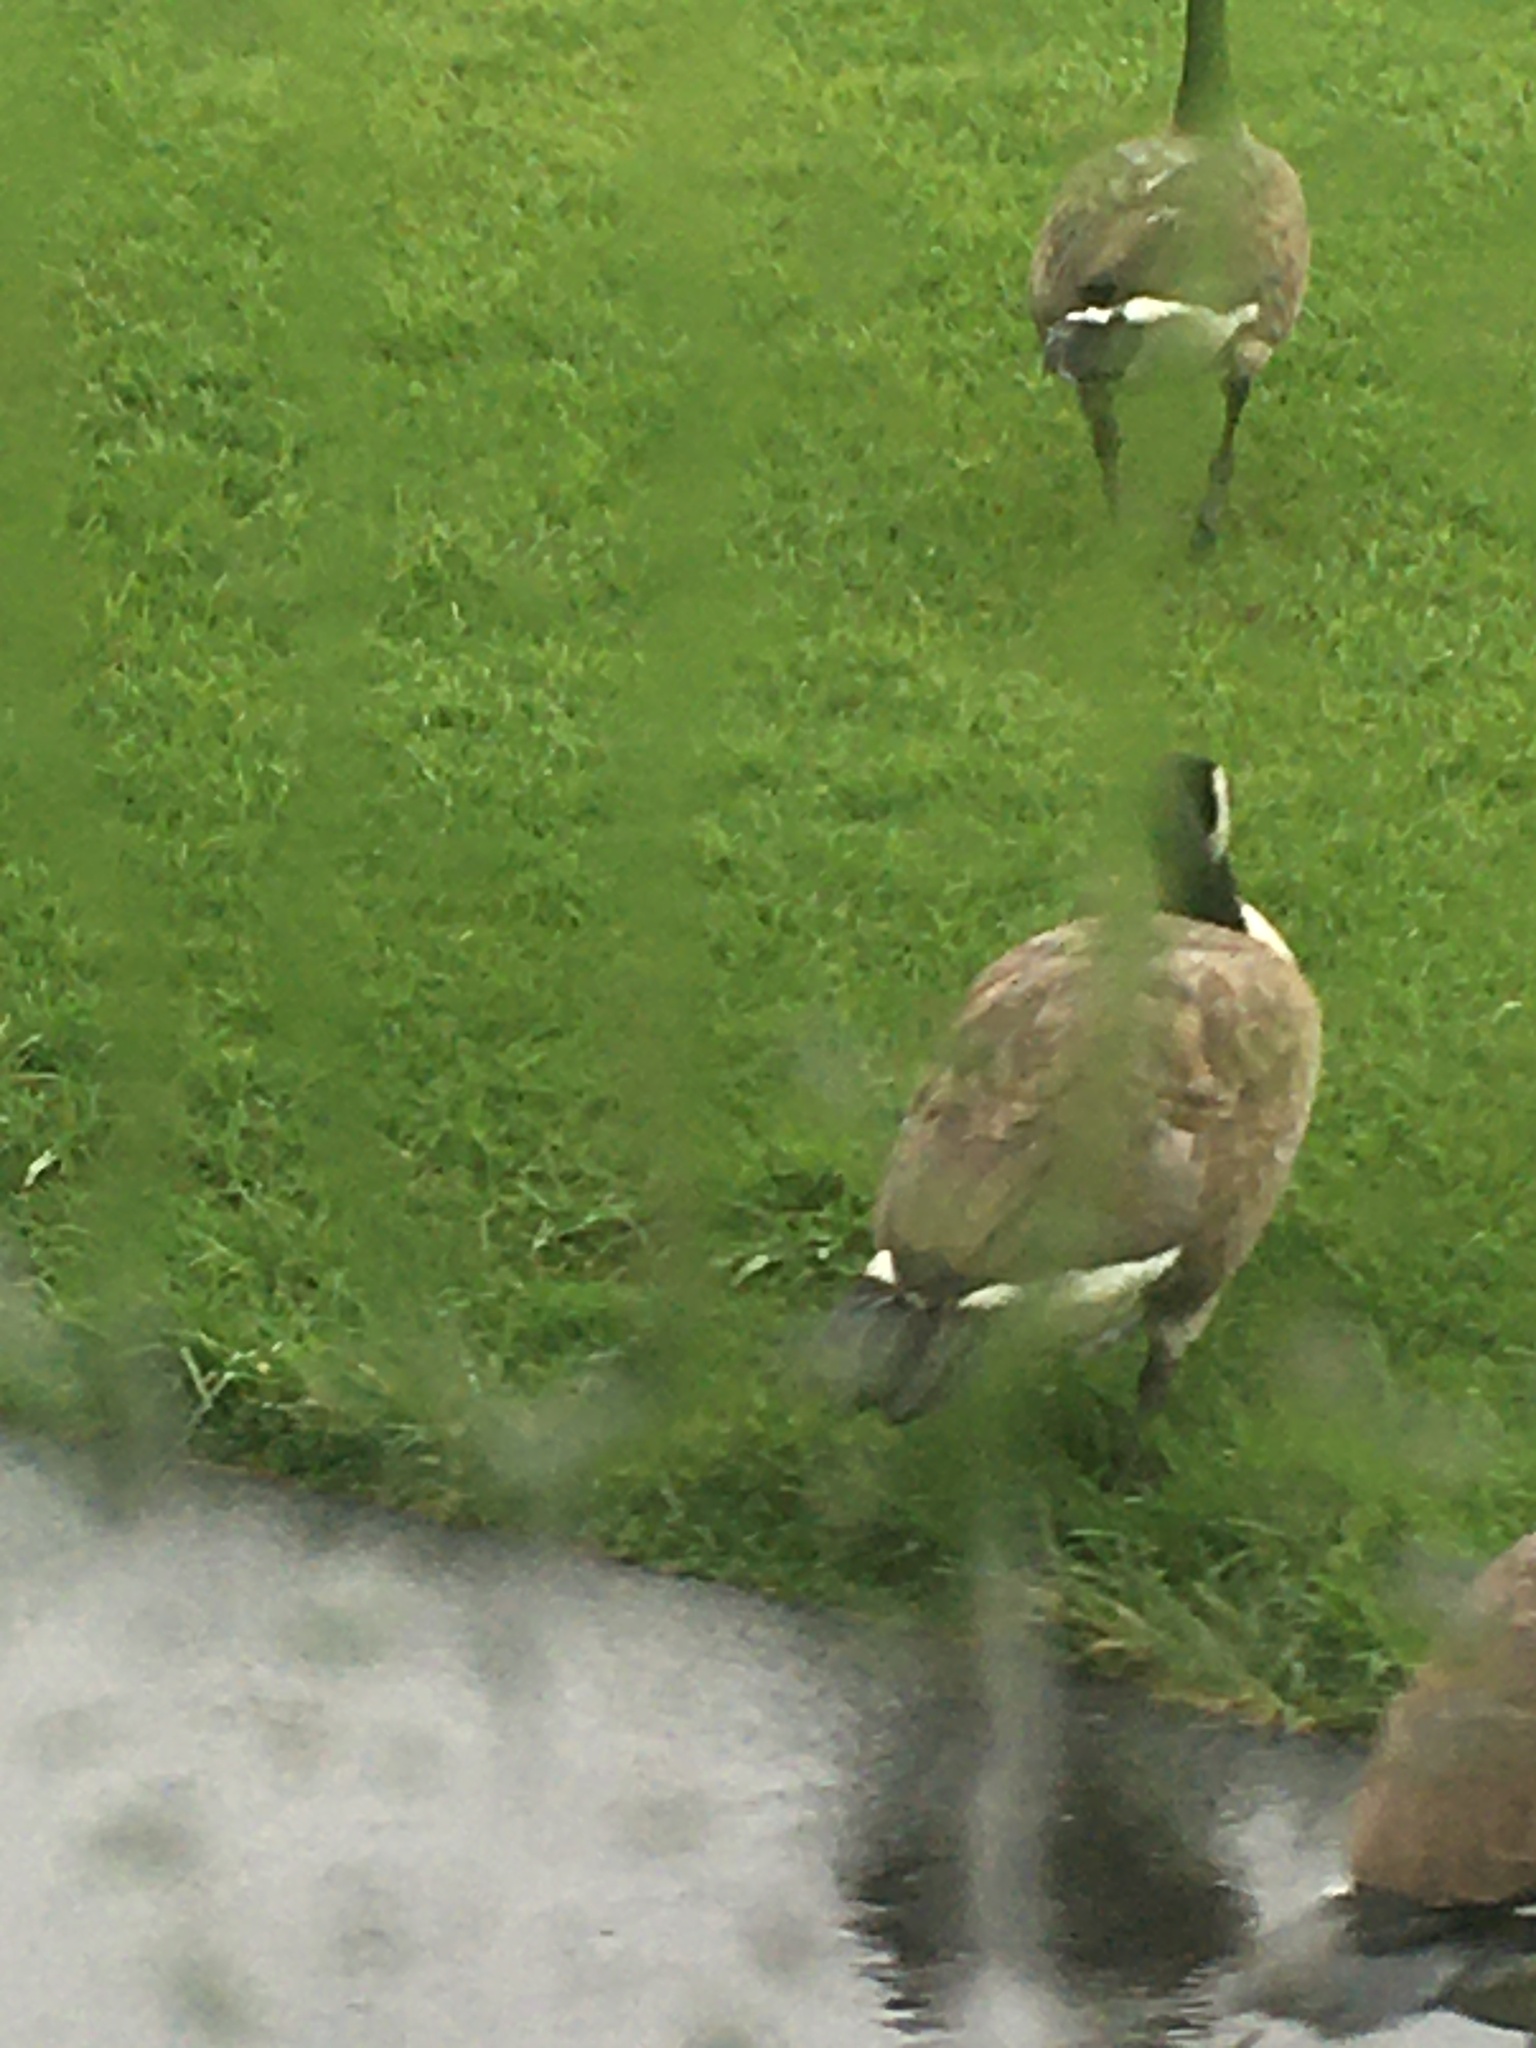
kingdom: Animalia
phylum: Chordata
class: Aves
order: Anseriformes
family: Anatidae
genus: Branta
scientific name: Branta canadensis
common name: Canada goose
